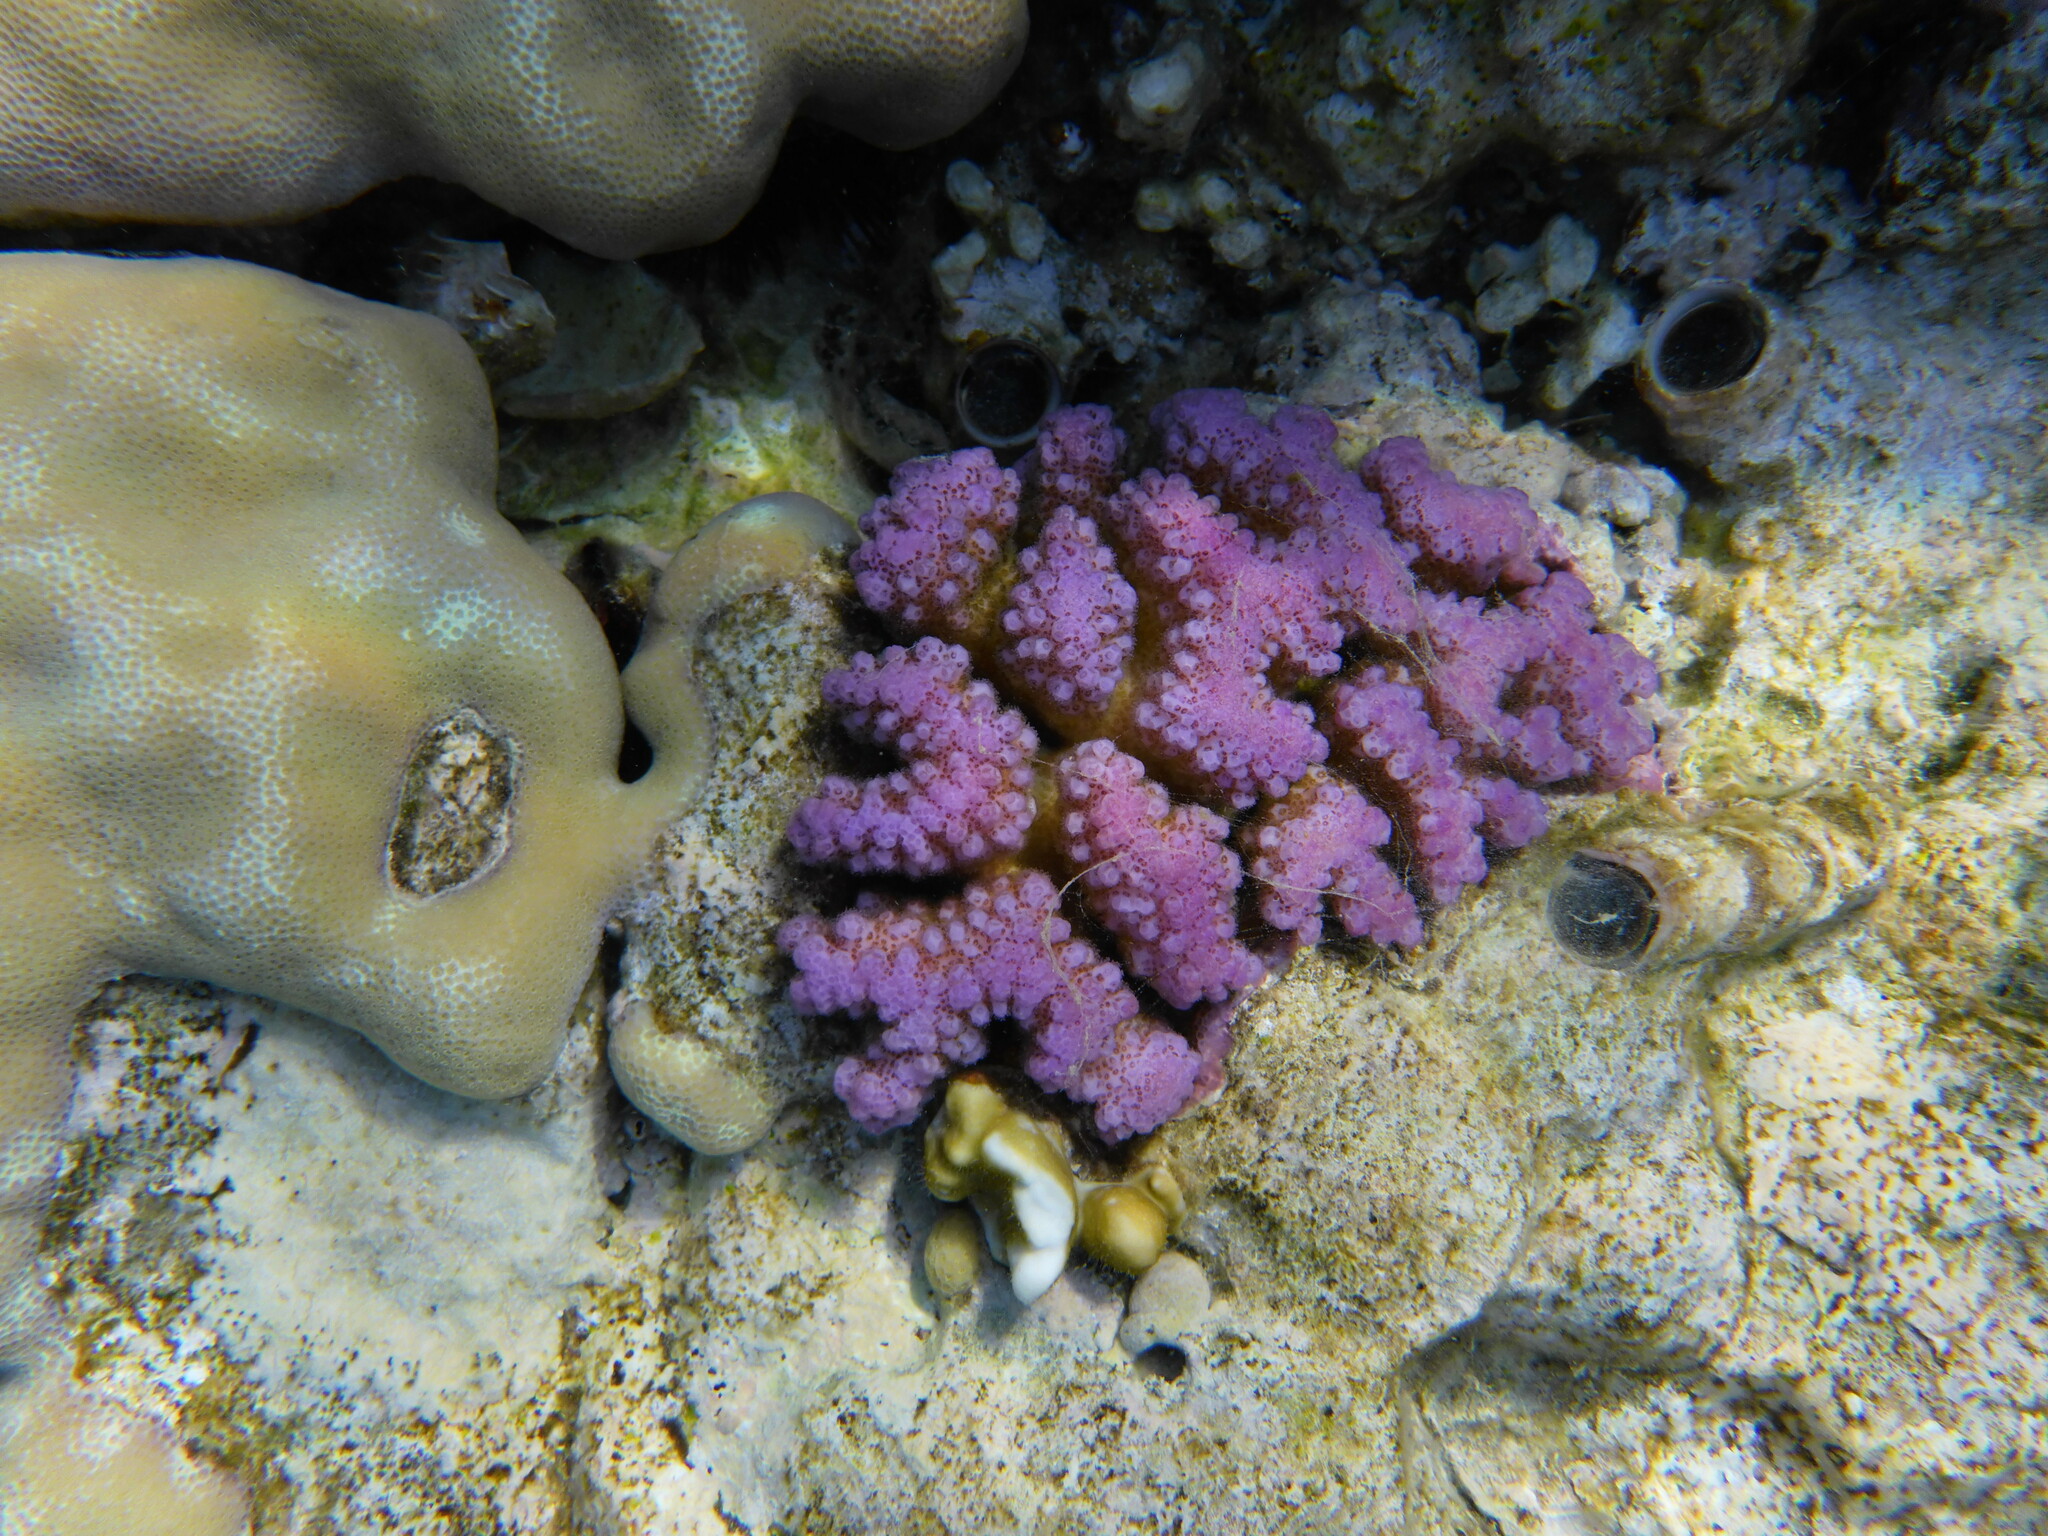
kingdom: Animalia
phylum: Cnidaria
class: Anthozoa
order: Scleractinia
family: Pocilloporidae
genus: Pocillopora
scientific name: Pocillopora verrucosa
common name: Cauliflower coral
